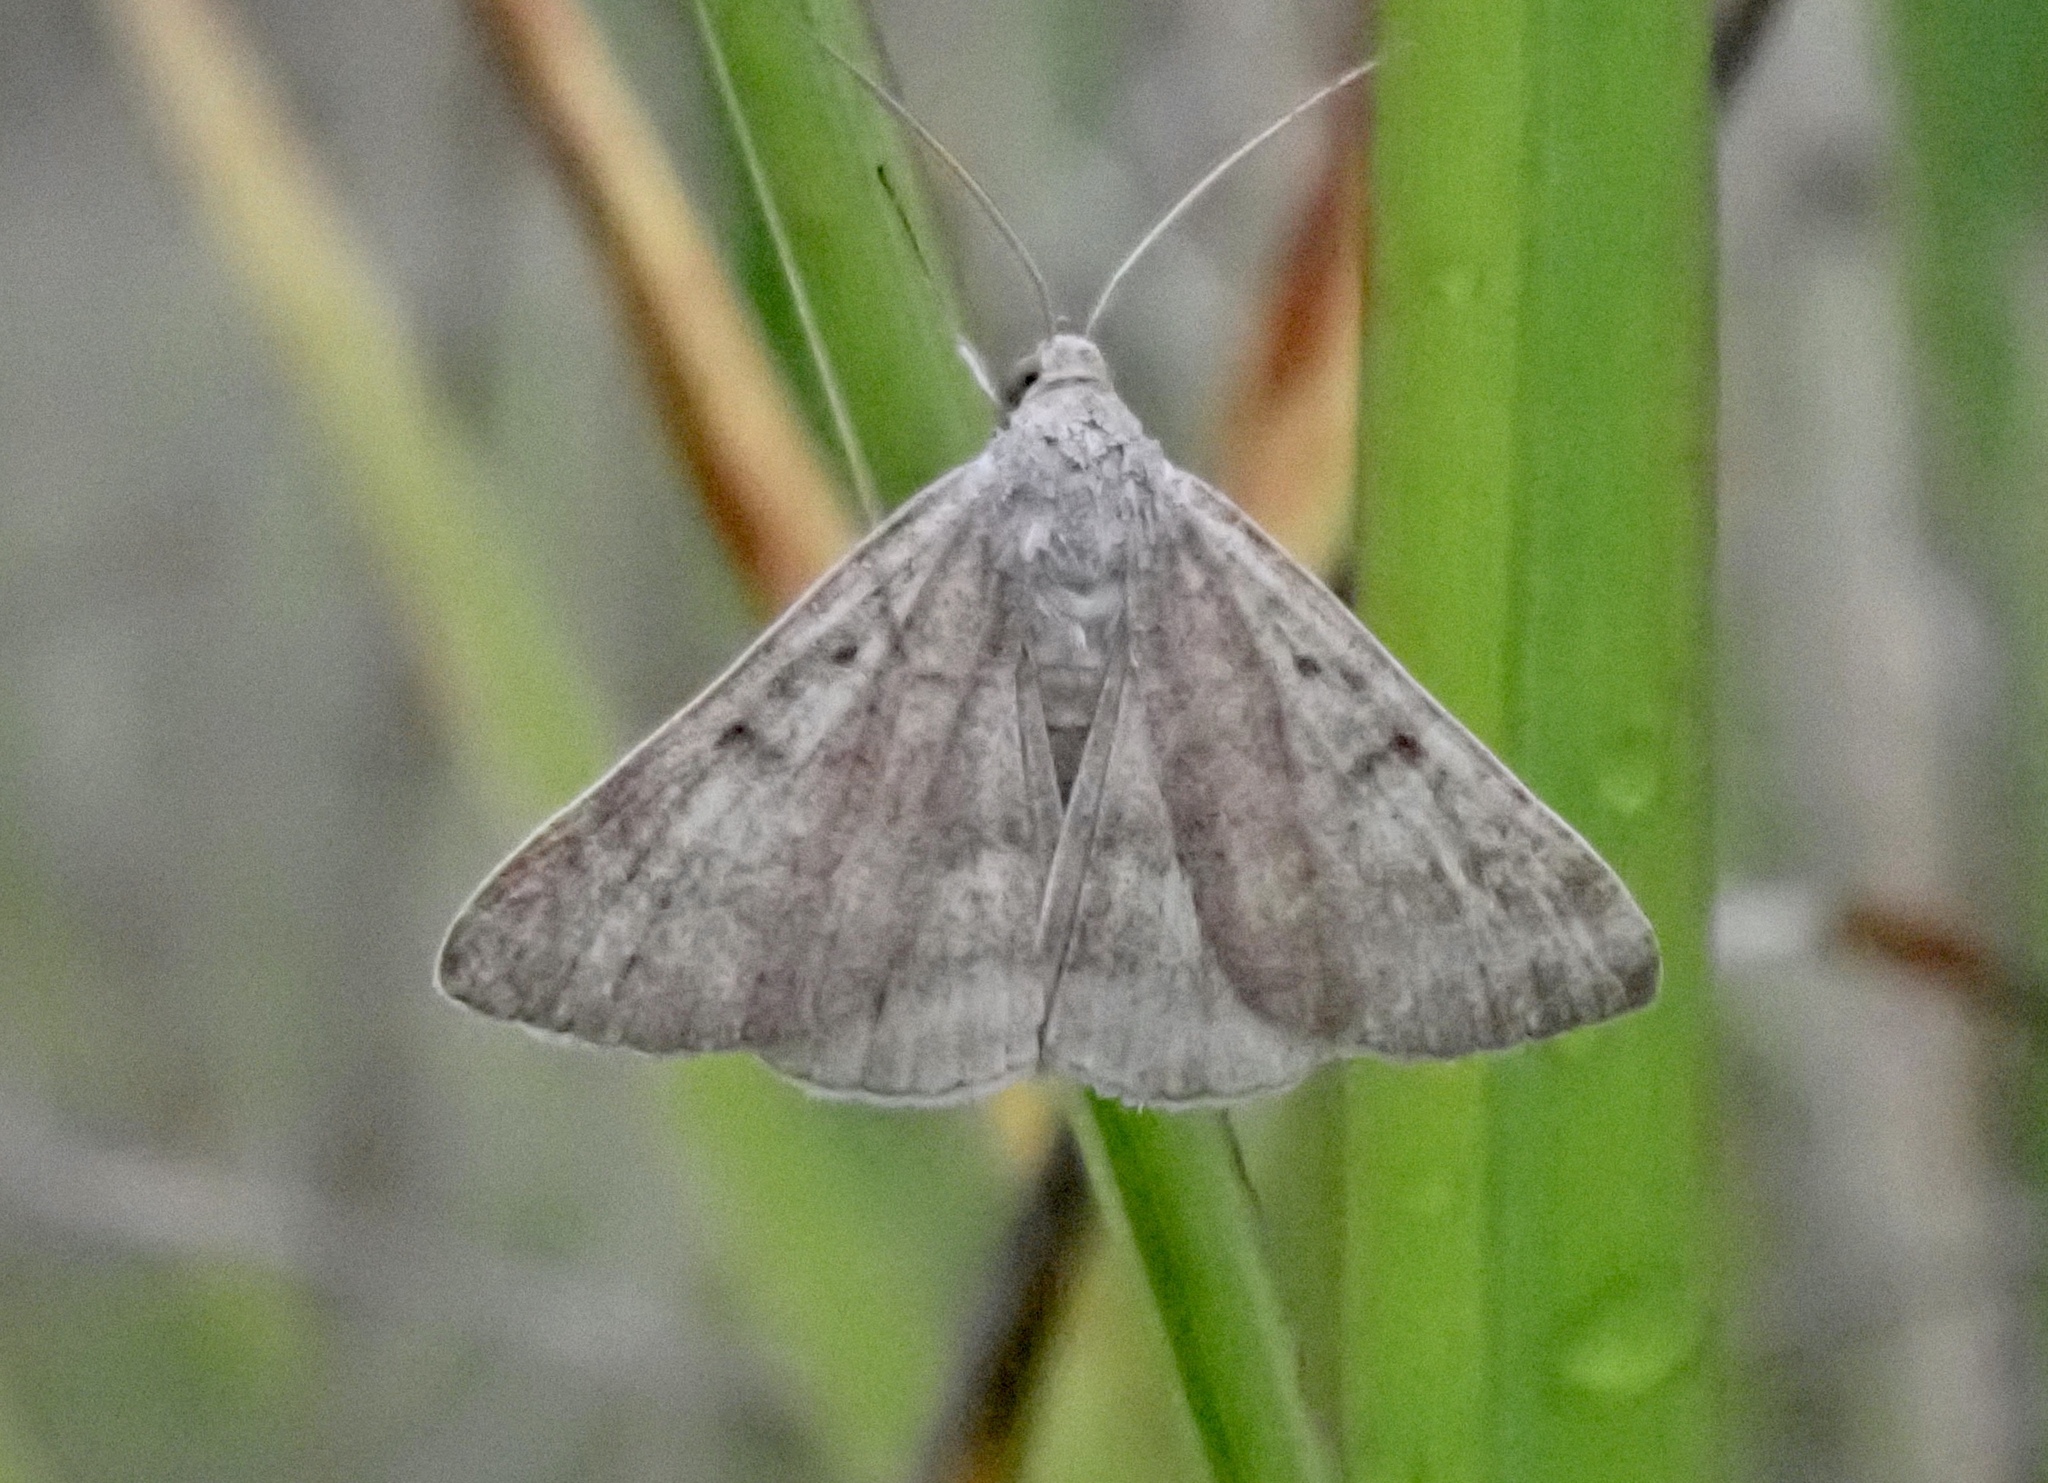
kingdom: Animalia
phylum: Arthropoda
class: Insecta
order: Lepidoptera
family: Erebidae
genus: Caenurgia
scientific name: Caenurgia chloropha
